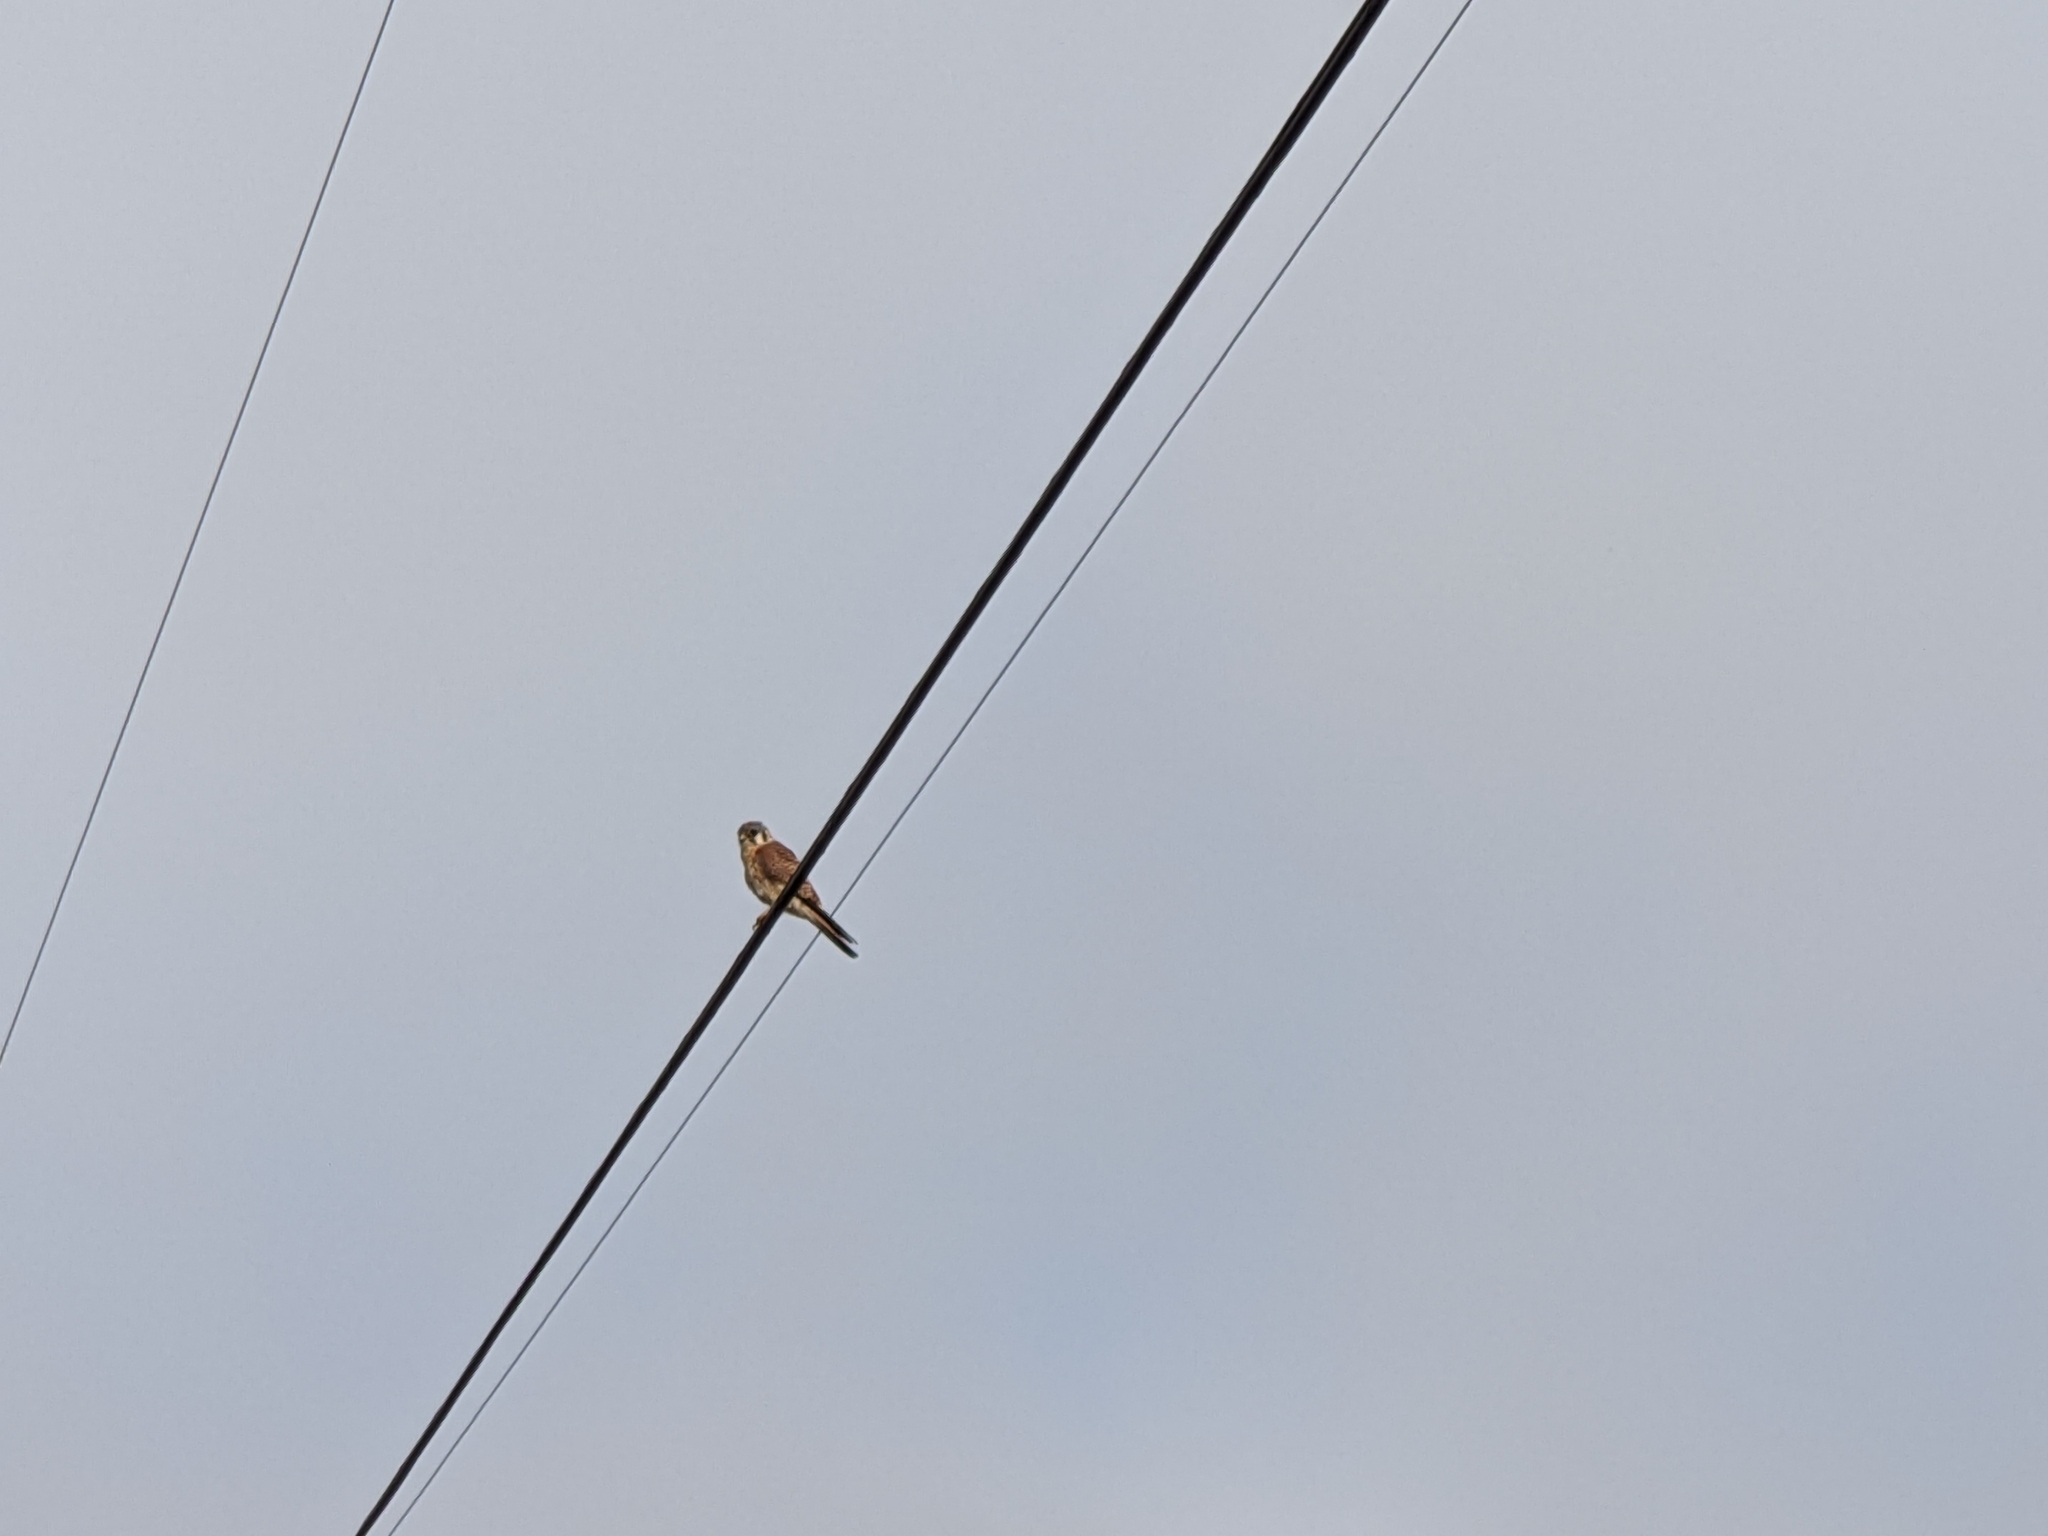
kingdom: Animalia
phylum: Chordata
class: Aves
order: Falconiformes
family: Falconidae
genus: Falco
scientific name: Falco sparverius
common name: American kestrel
